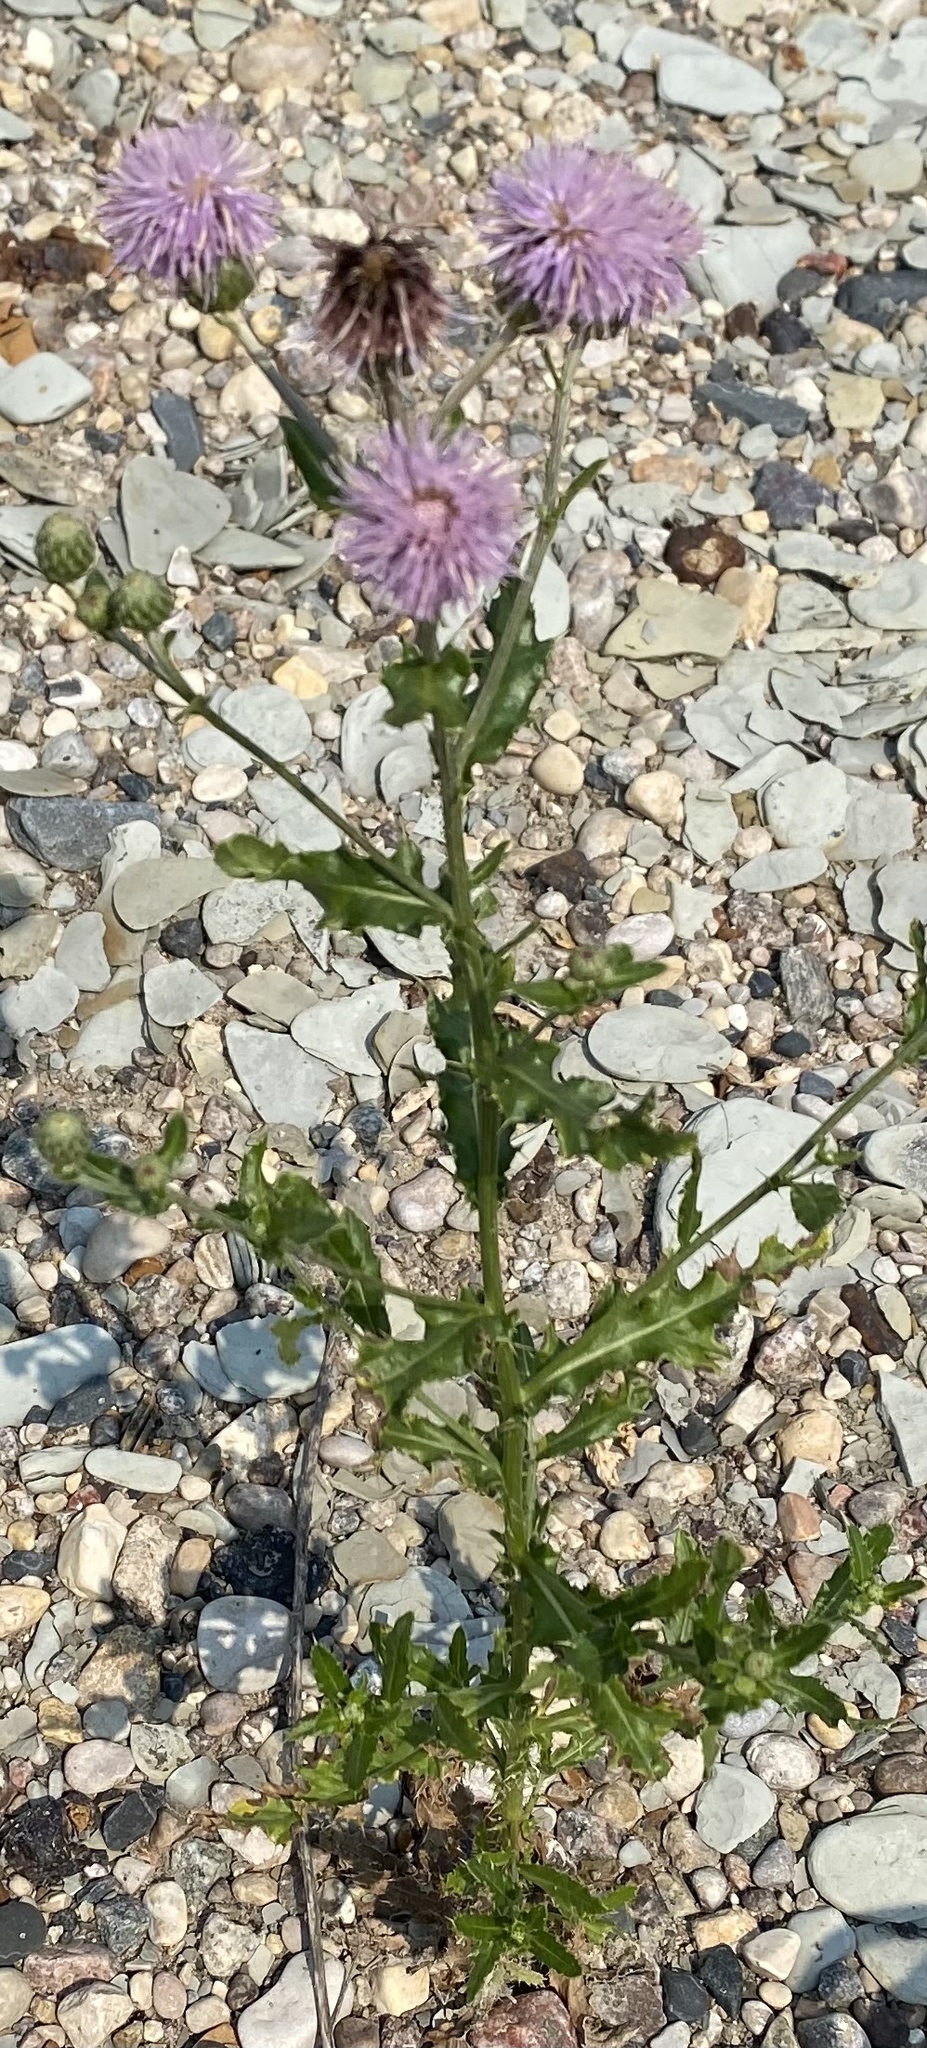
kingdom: Plantae
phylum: Tracheophyta
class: Magnoliopsida
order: Asterales
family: Asteraceae
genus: Cirsium
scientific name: Cirsium arvense
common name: Creeping thistle
